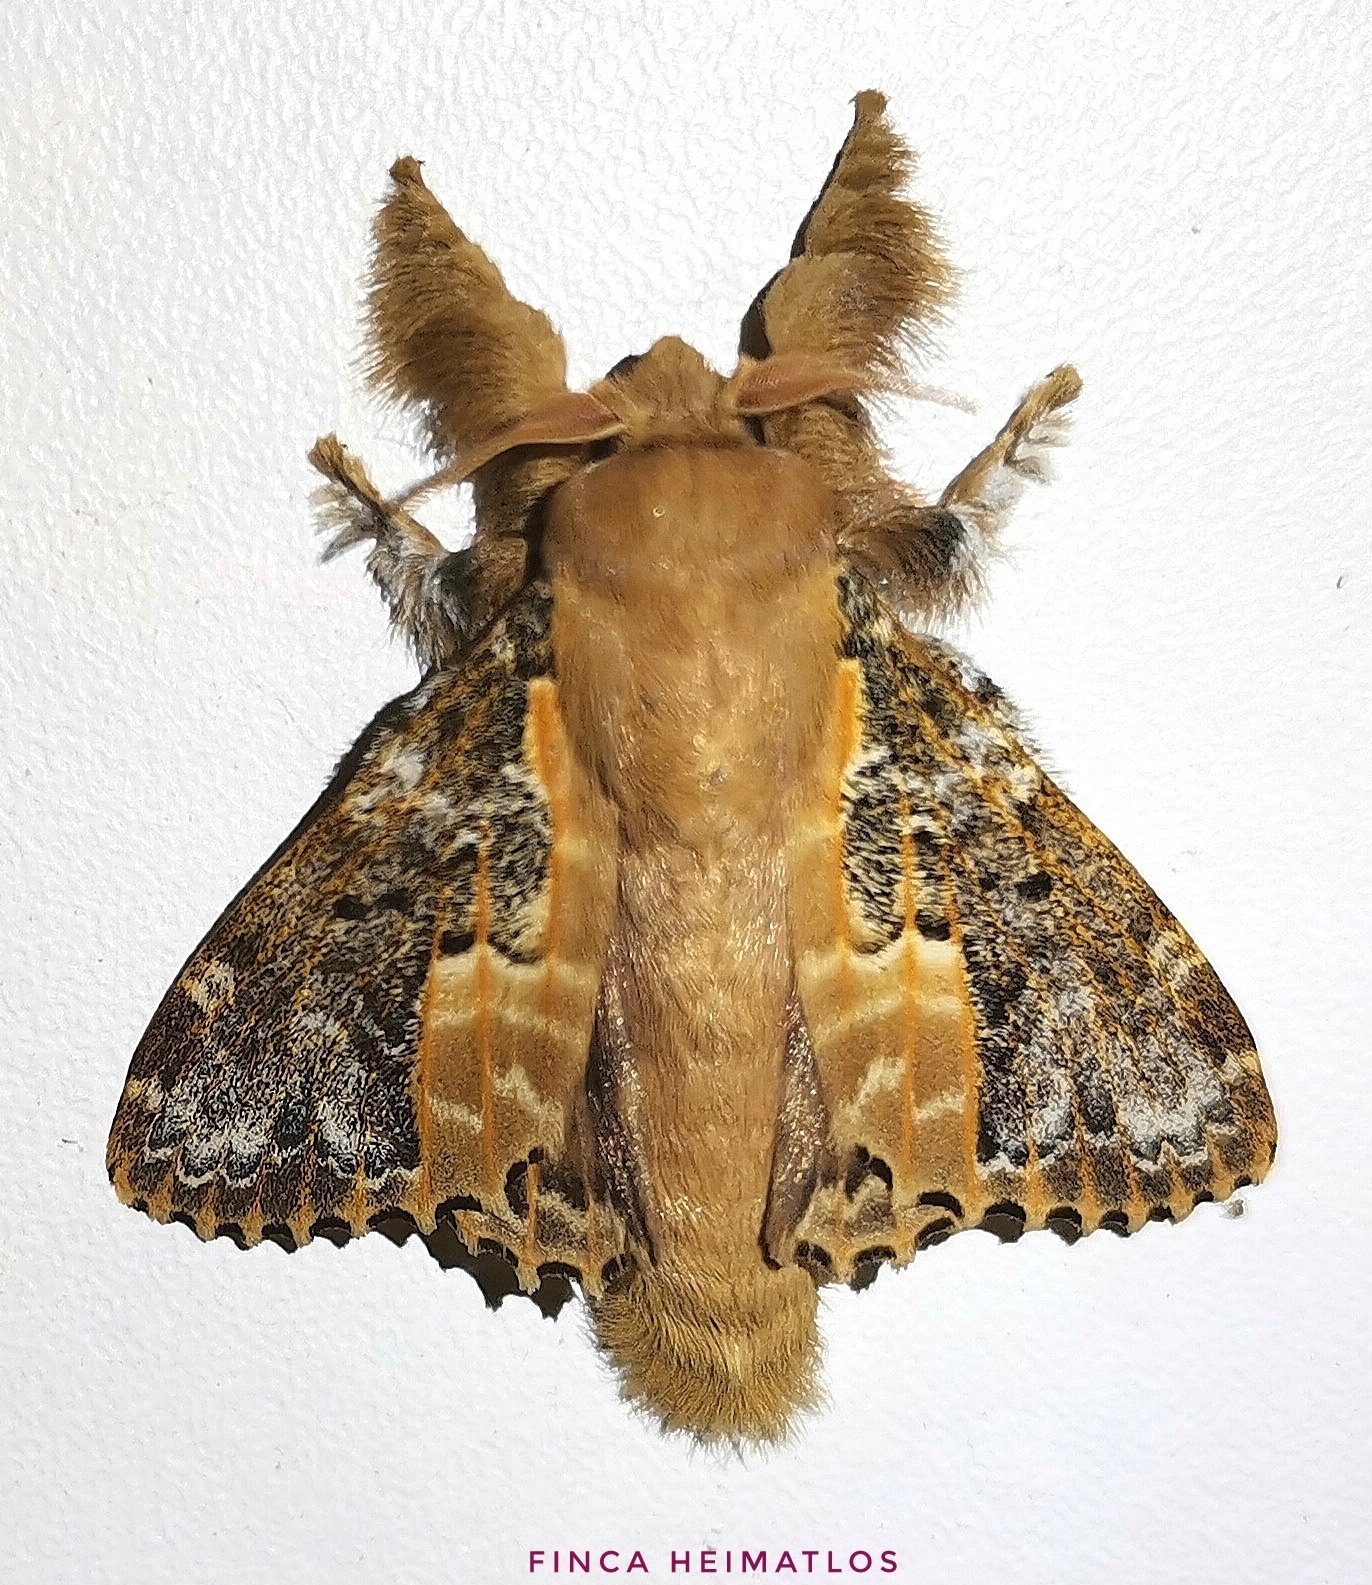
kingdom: Animalia
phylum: Arthropoda
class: Insecta
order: Lepidoptera
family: Lasiocampidae
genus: Euglyphis
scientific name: Euglyphis claudia
